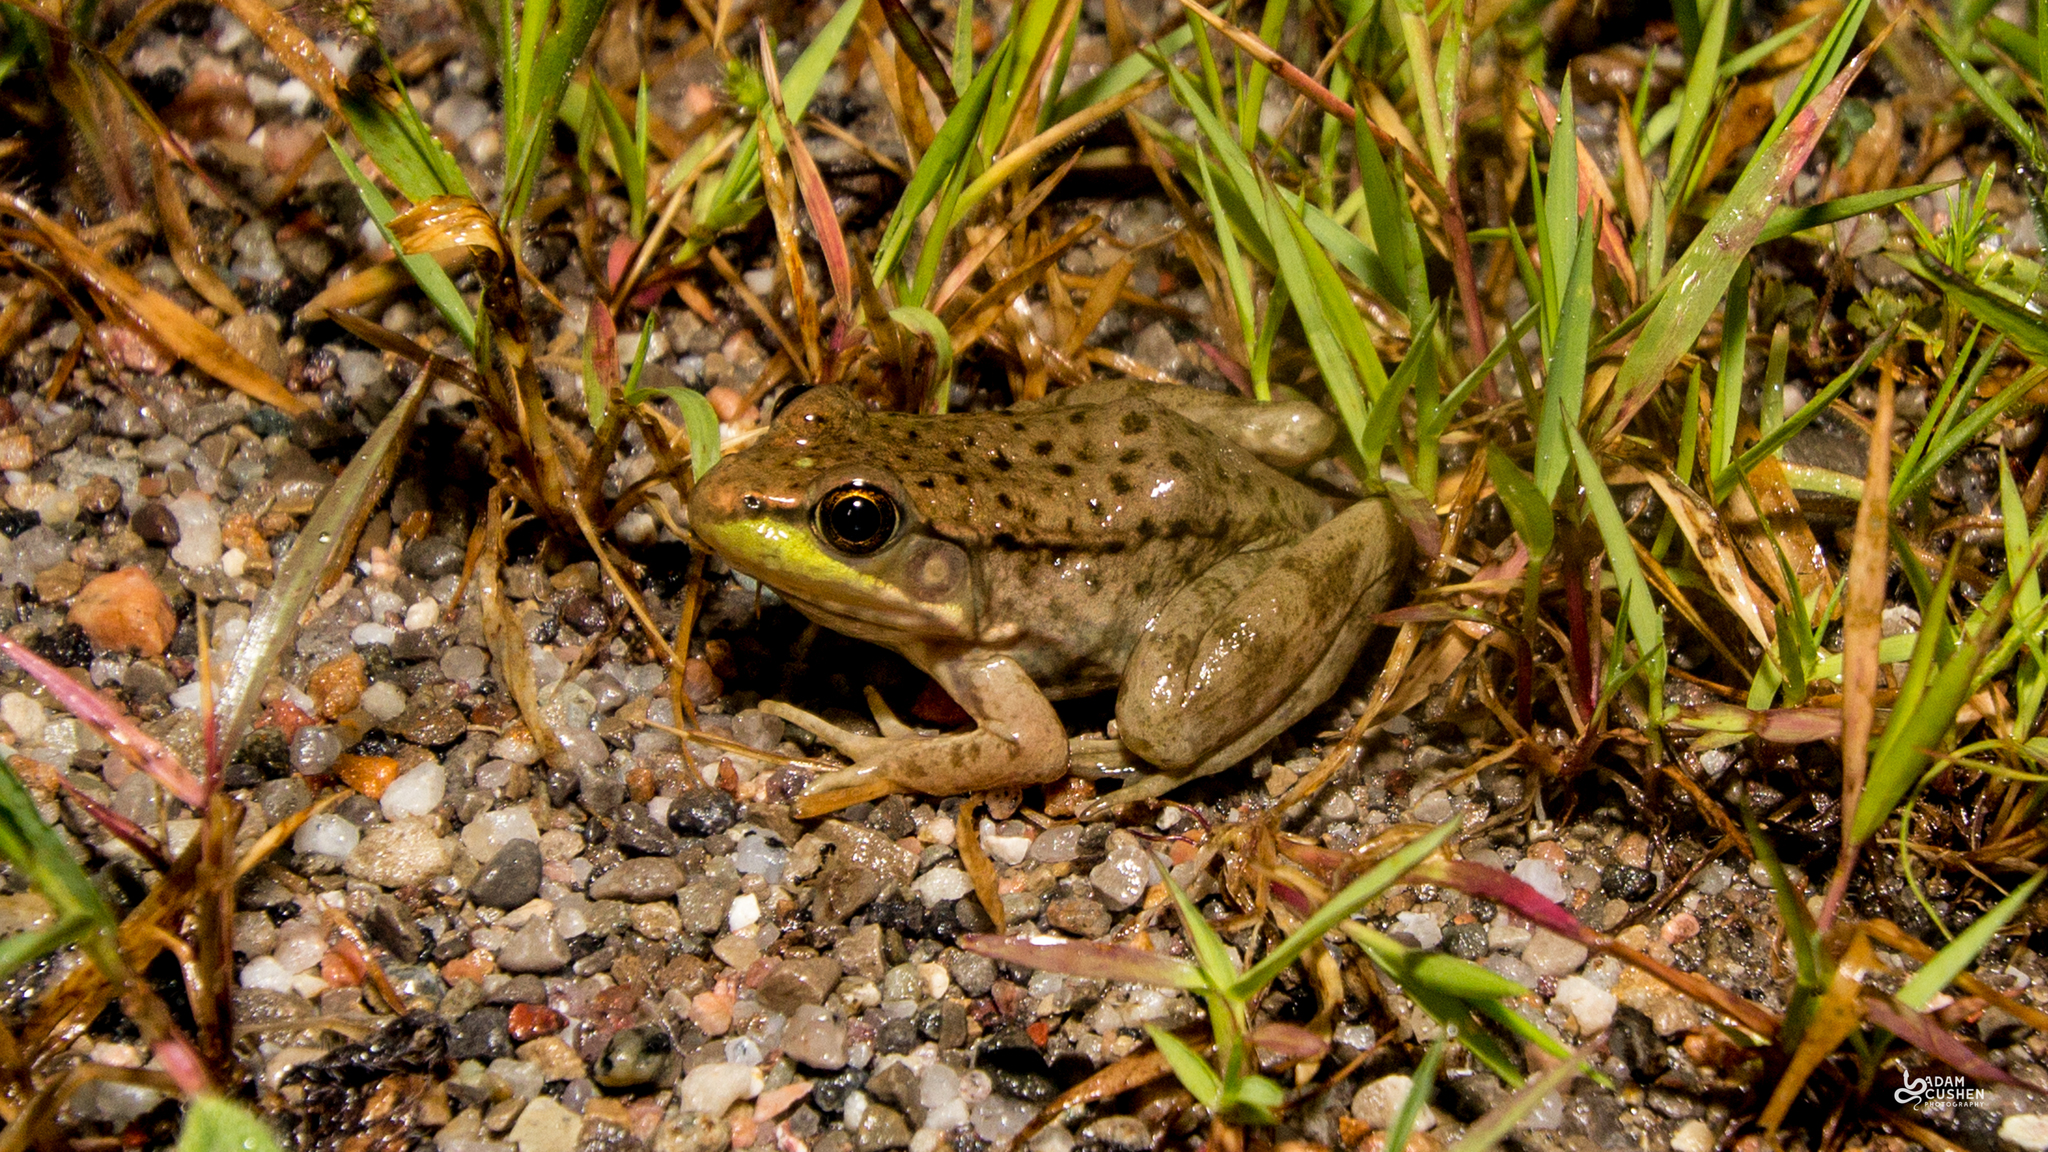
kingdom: Animalia
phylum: Chordata
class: Amphibia
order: Anura
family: Ranidae
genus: Lithobates
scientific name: Lithobates clamitans
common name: Green frog
